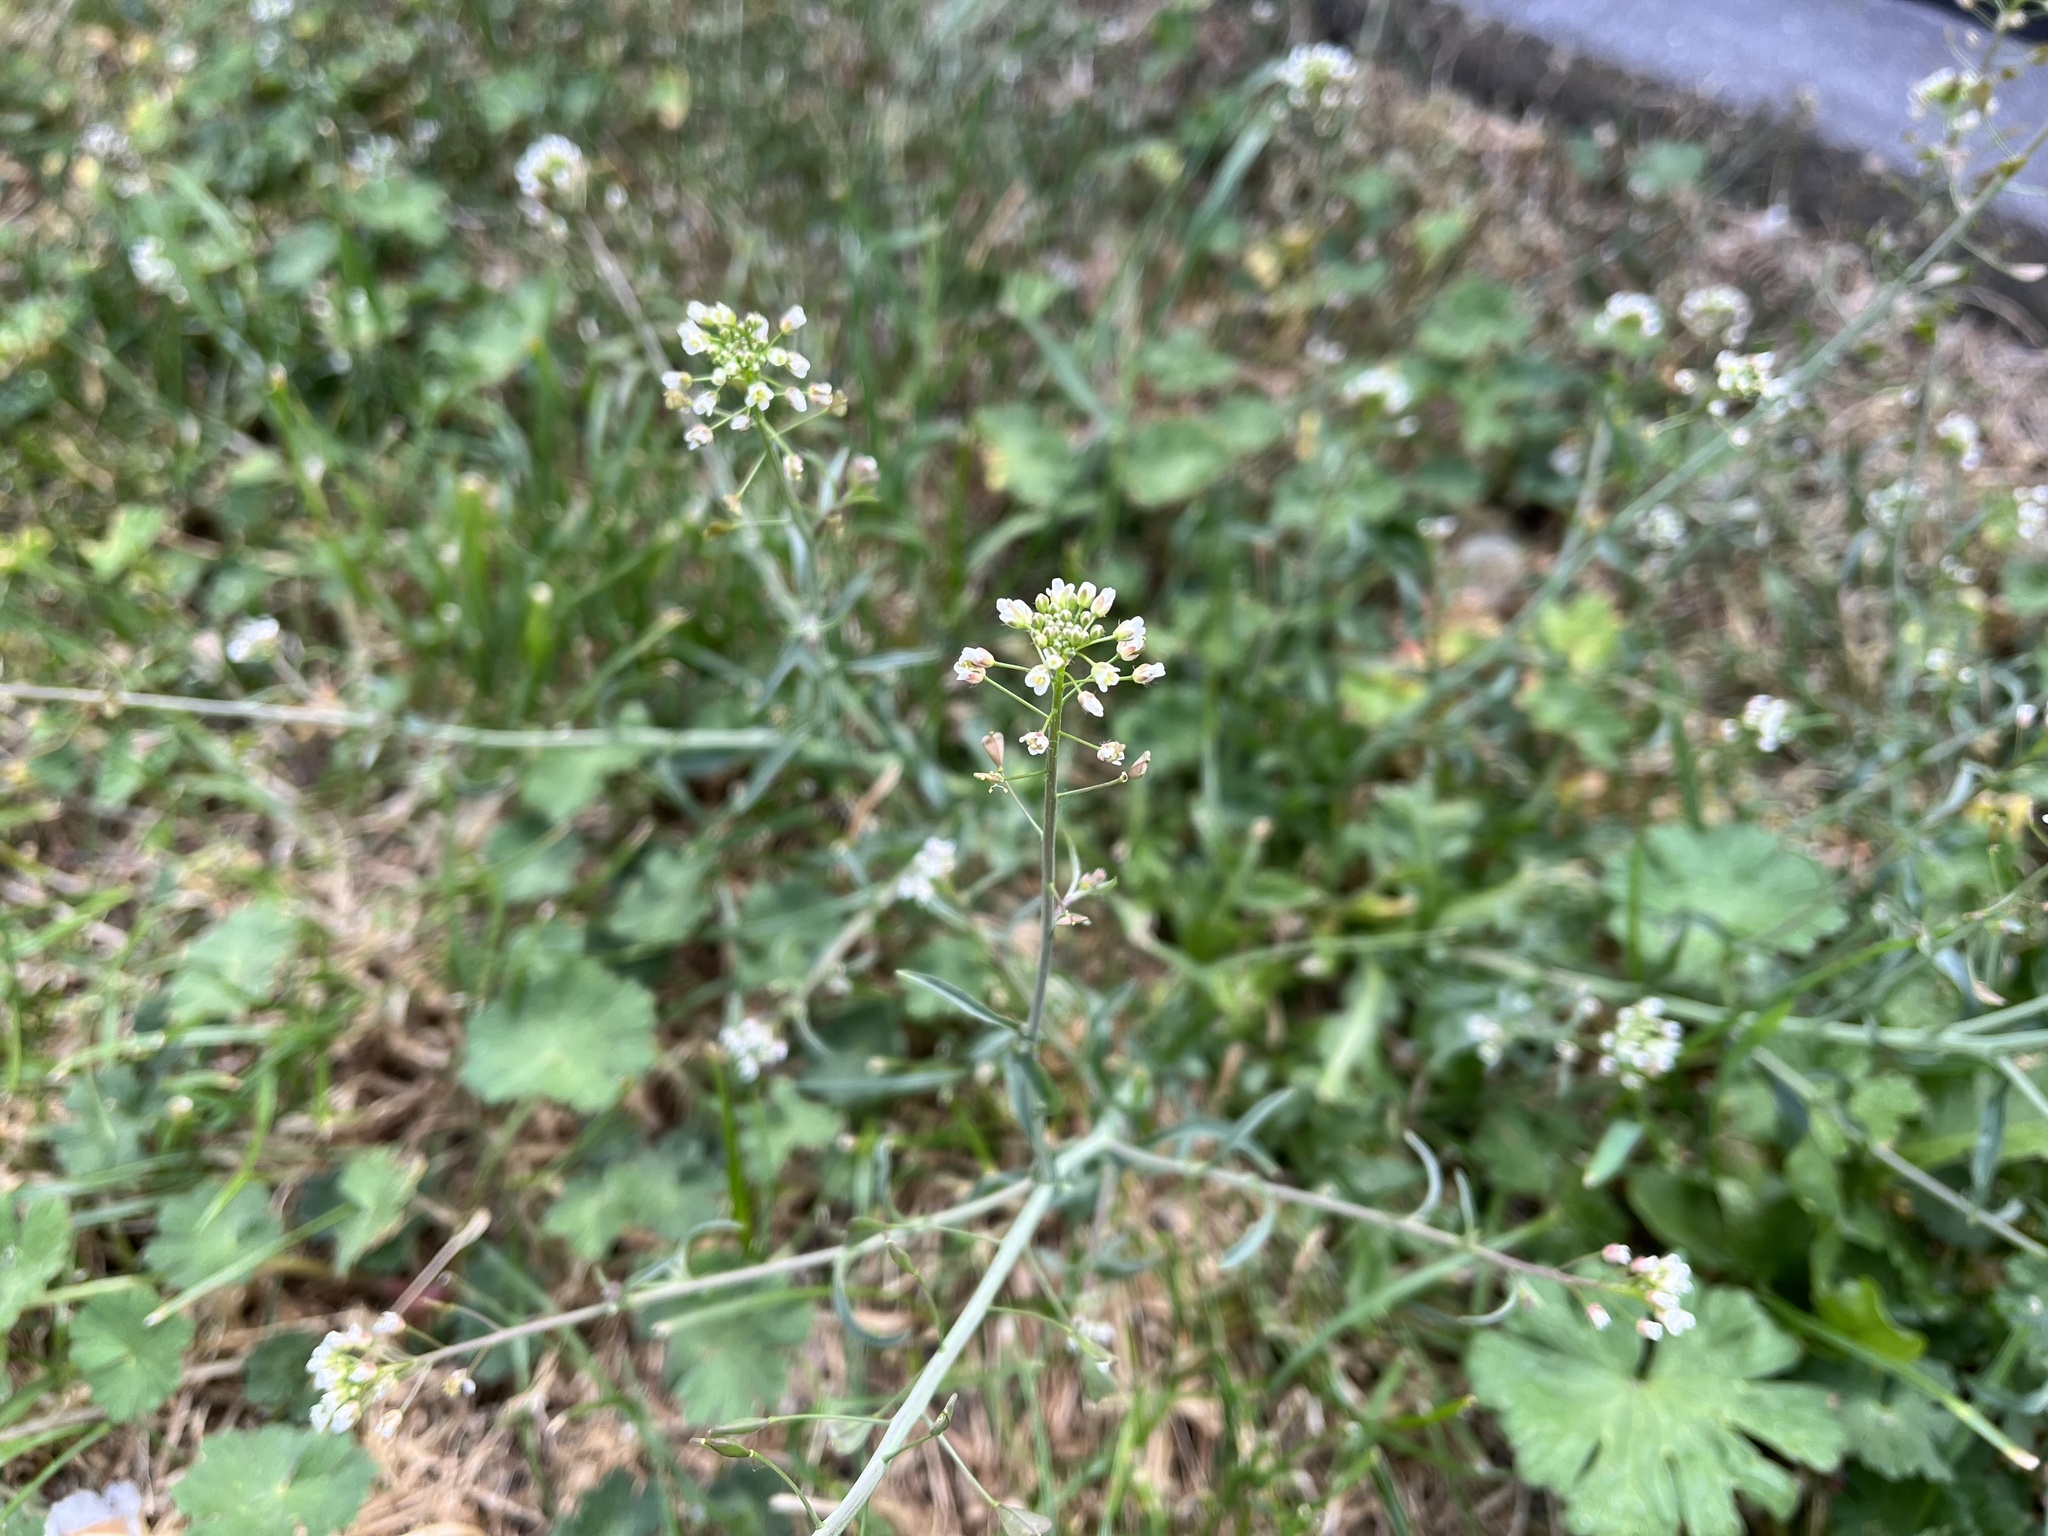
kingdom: Plantae
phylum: Tracheophyta
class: Magnoliopsida
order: Brassicales
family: Brassicaceae
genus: Capsella
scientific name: Capsella bursa-pastoris
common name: Shepherd's purse
